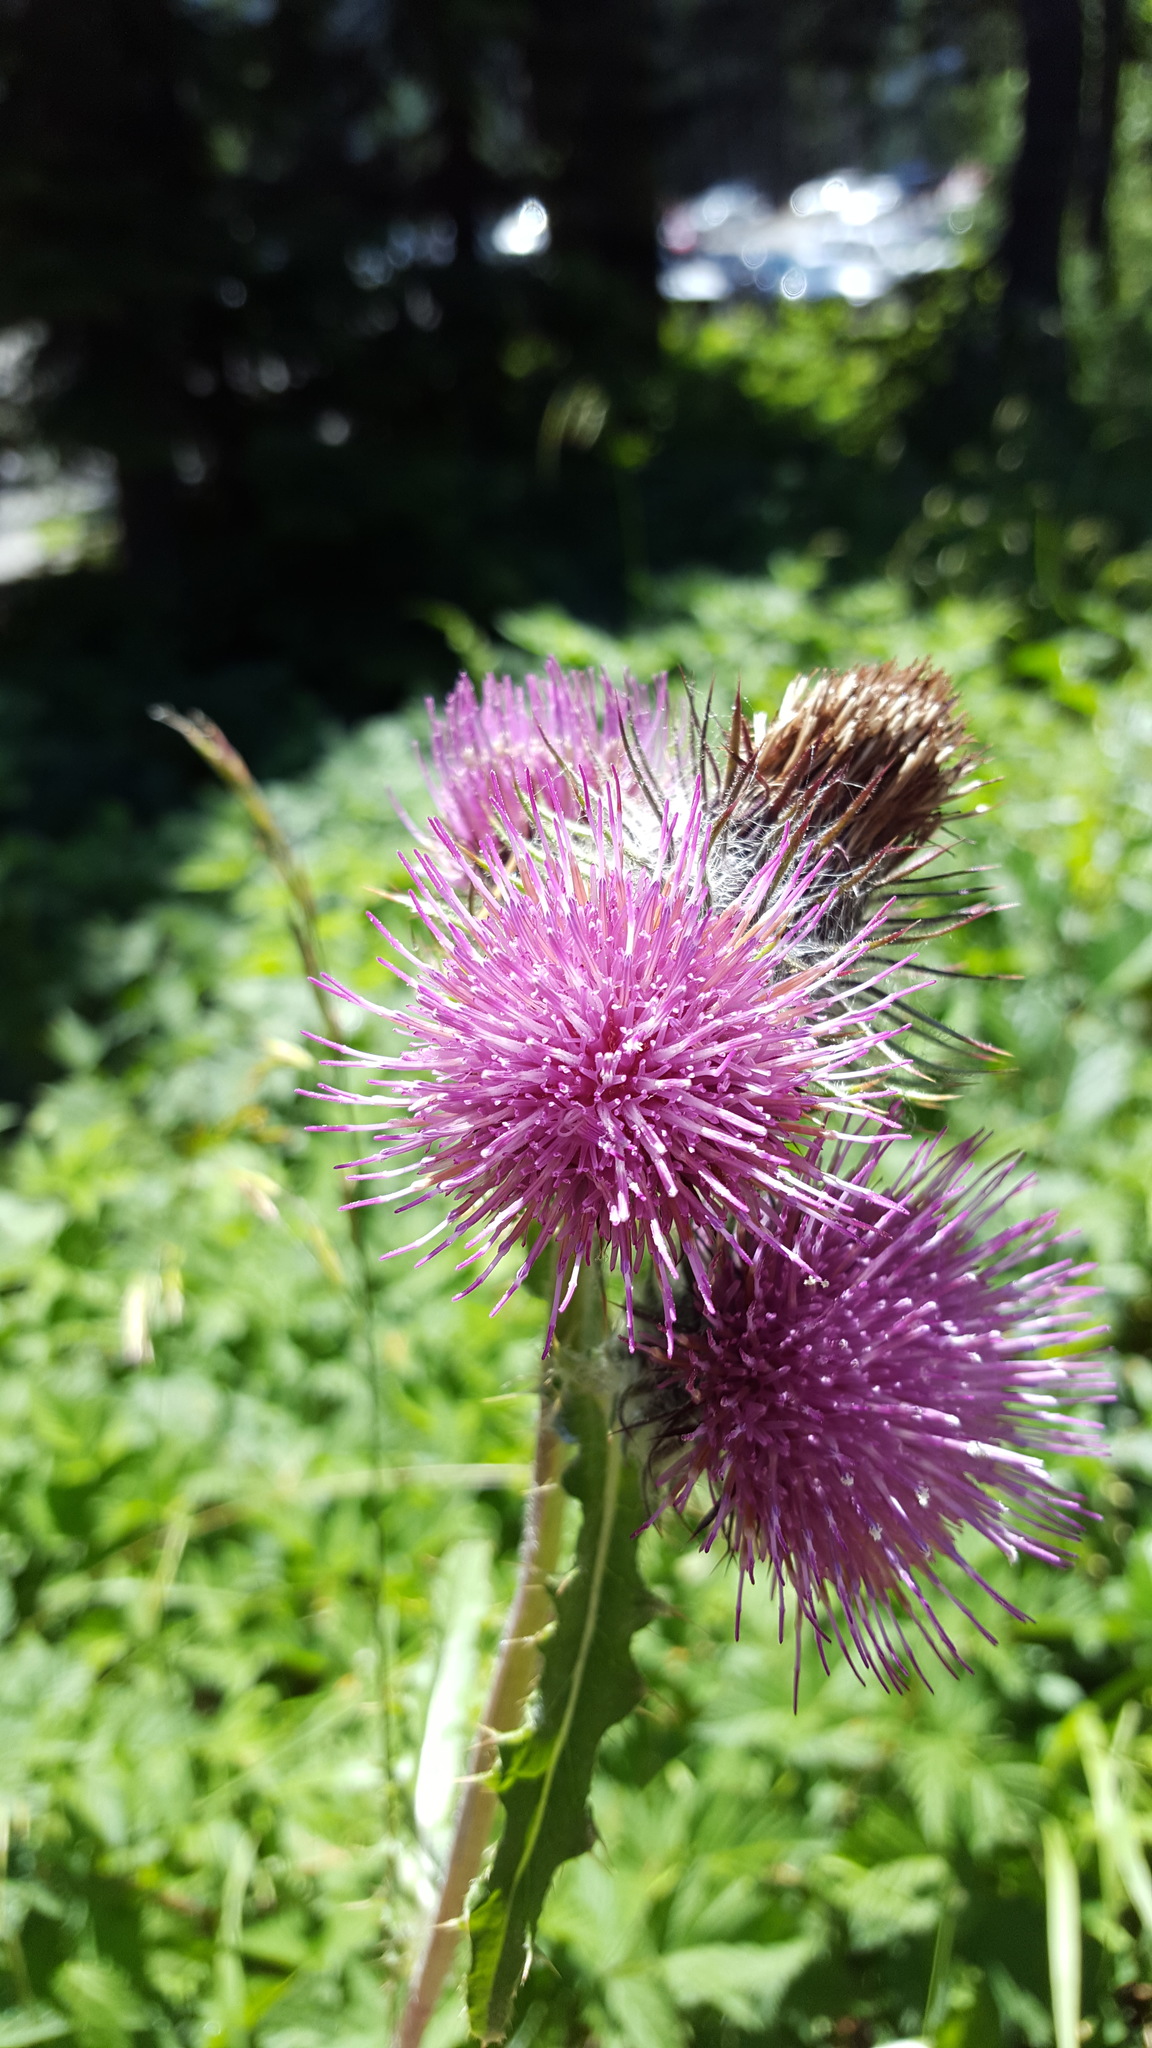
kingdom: Plantae
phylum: Tracheophyta
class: Magnoliopsida
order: Asterales
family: Asteraceae
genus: Cirsium
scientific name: Cirsium edule
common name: Indian thistle
